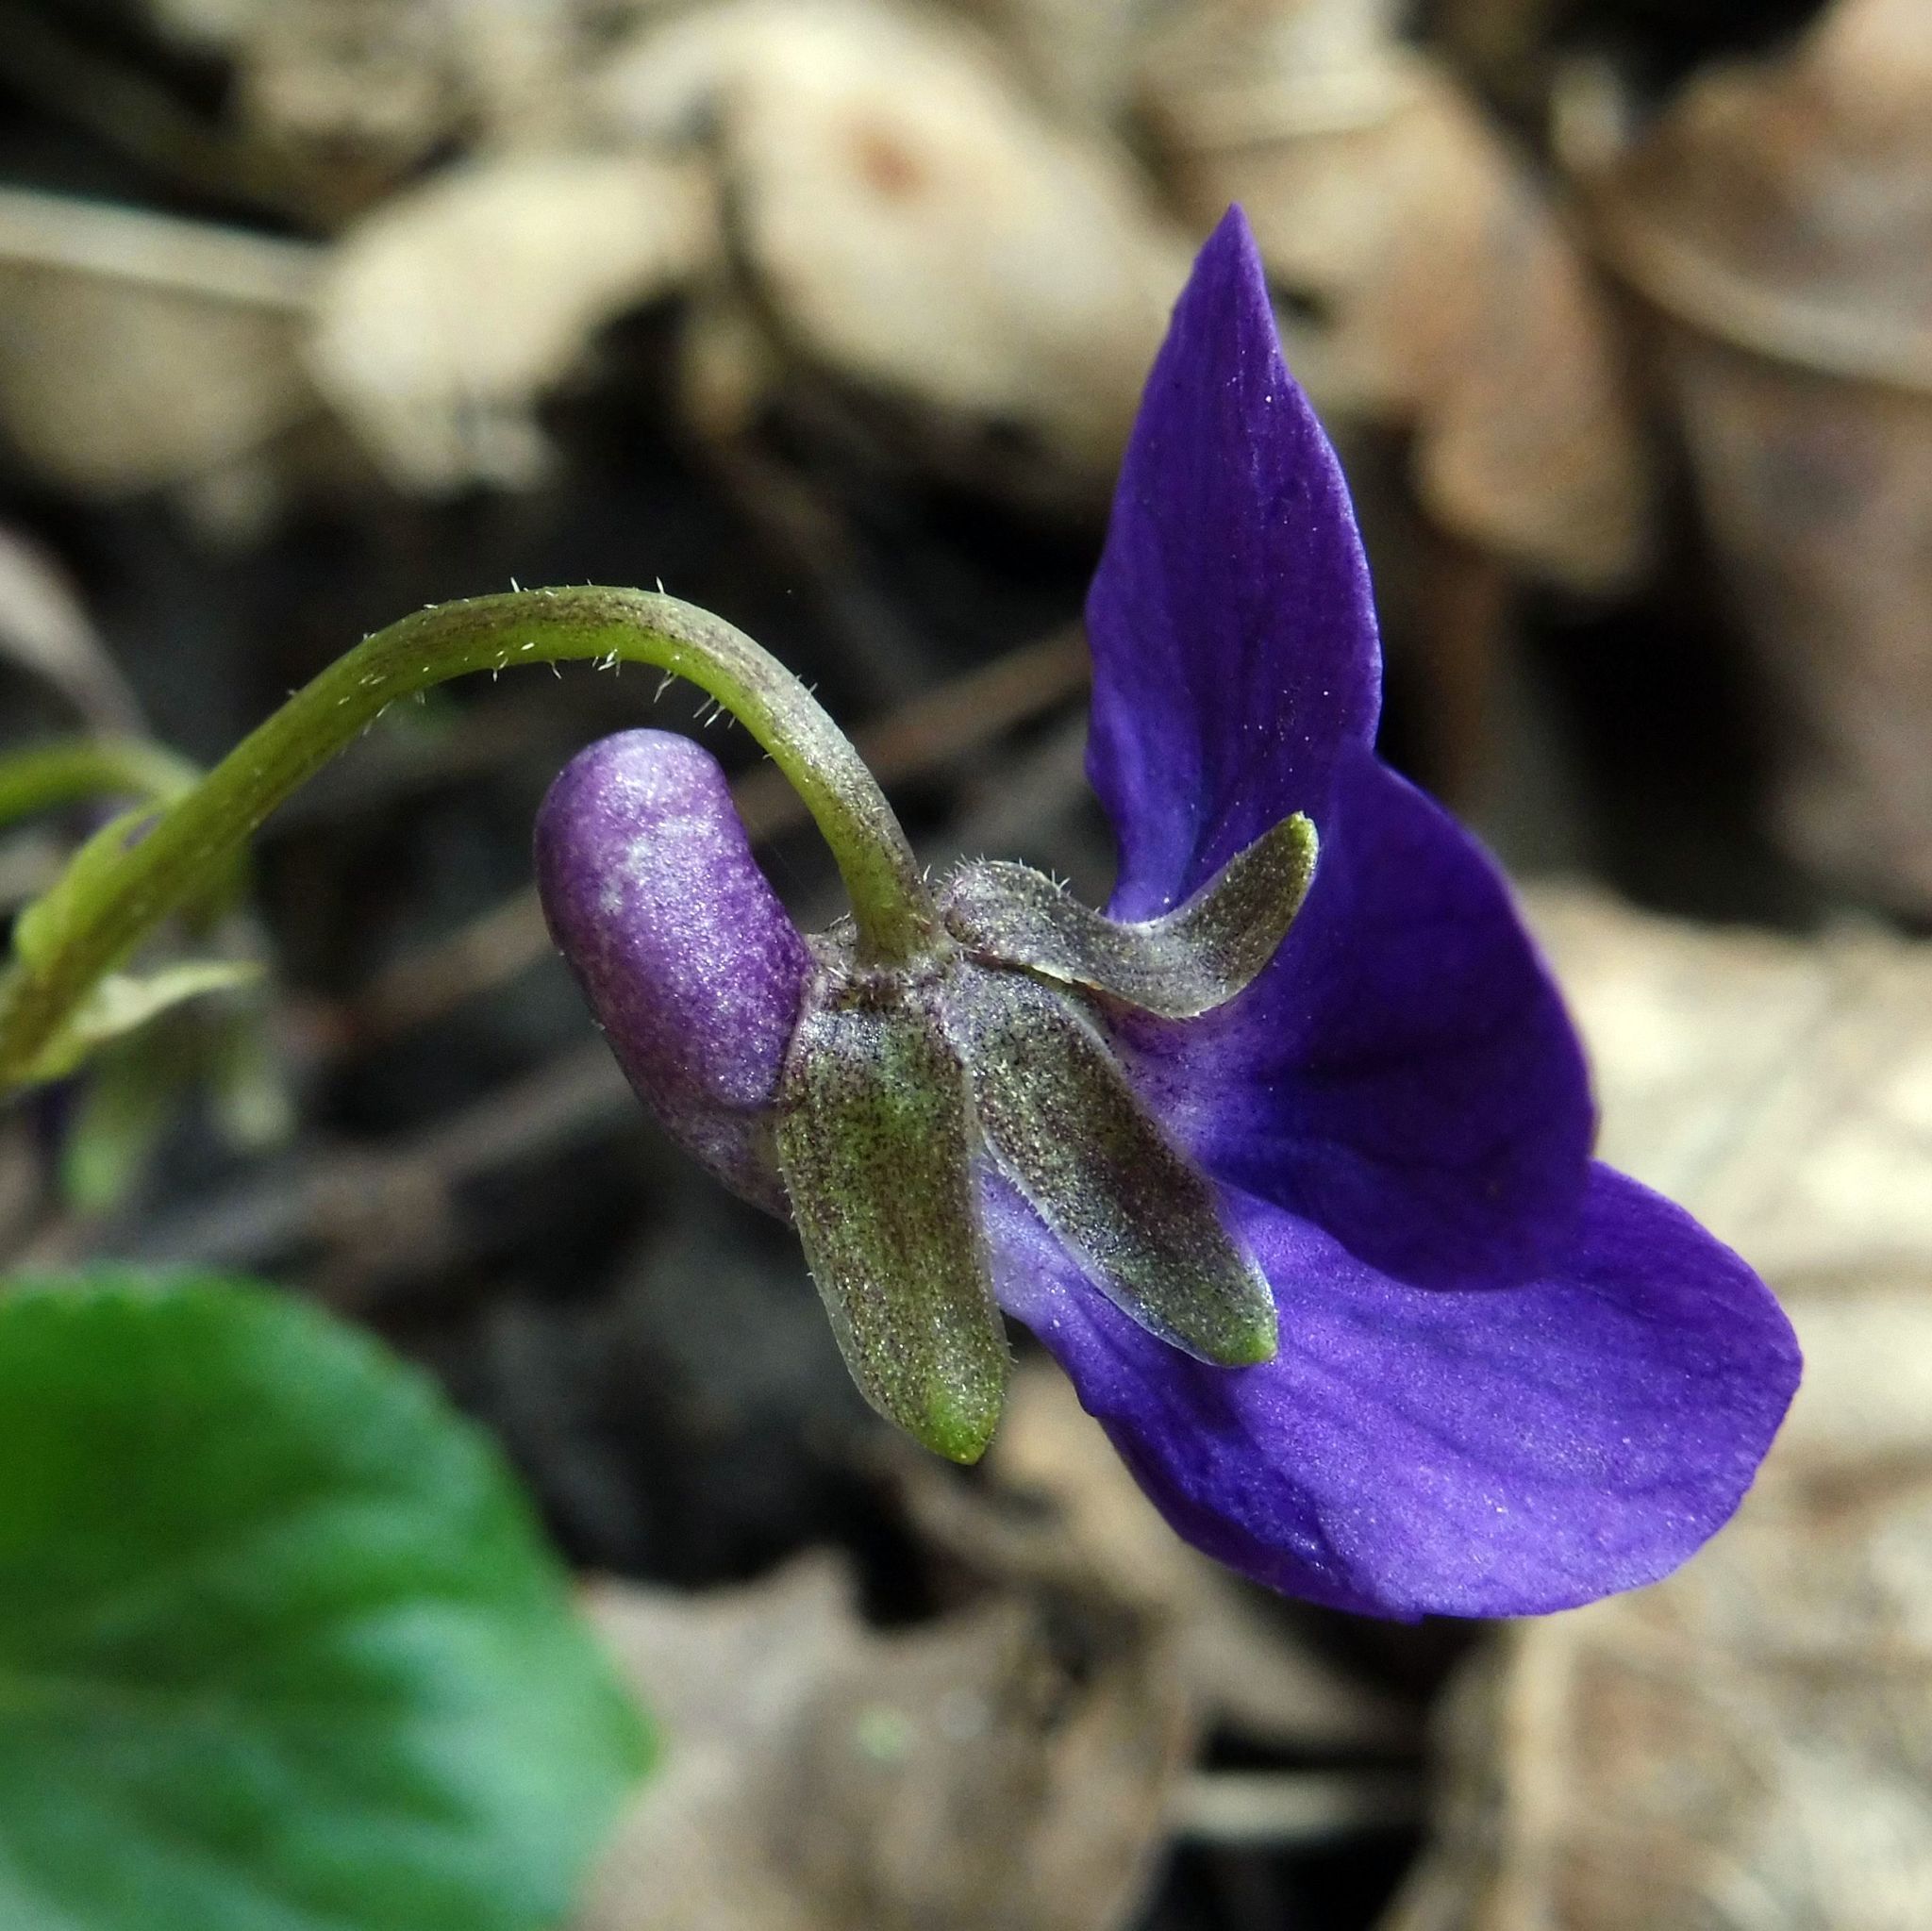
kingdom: Plantae
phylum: Tracheophyta
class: Magnoliopsida
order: Malpighiales
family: Violaceae
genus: Viola
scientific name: Viola odorata
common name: Sweet violet
